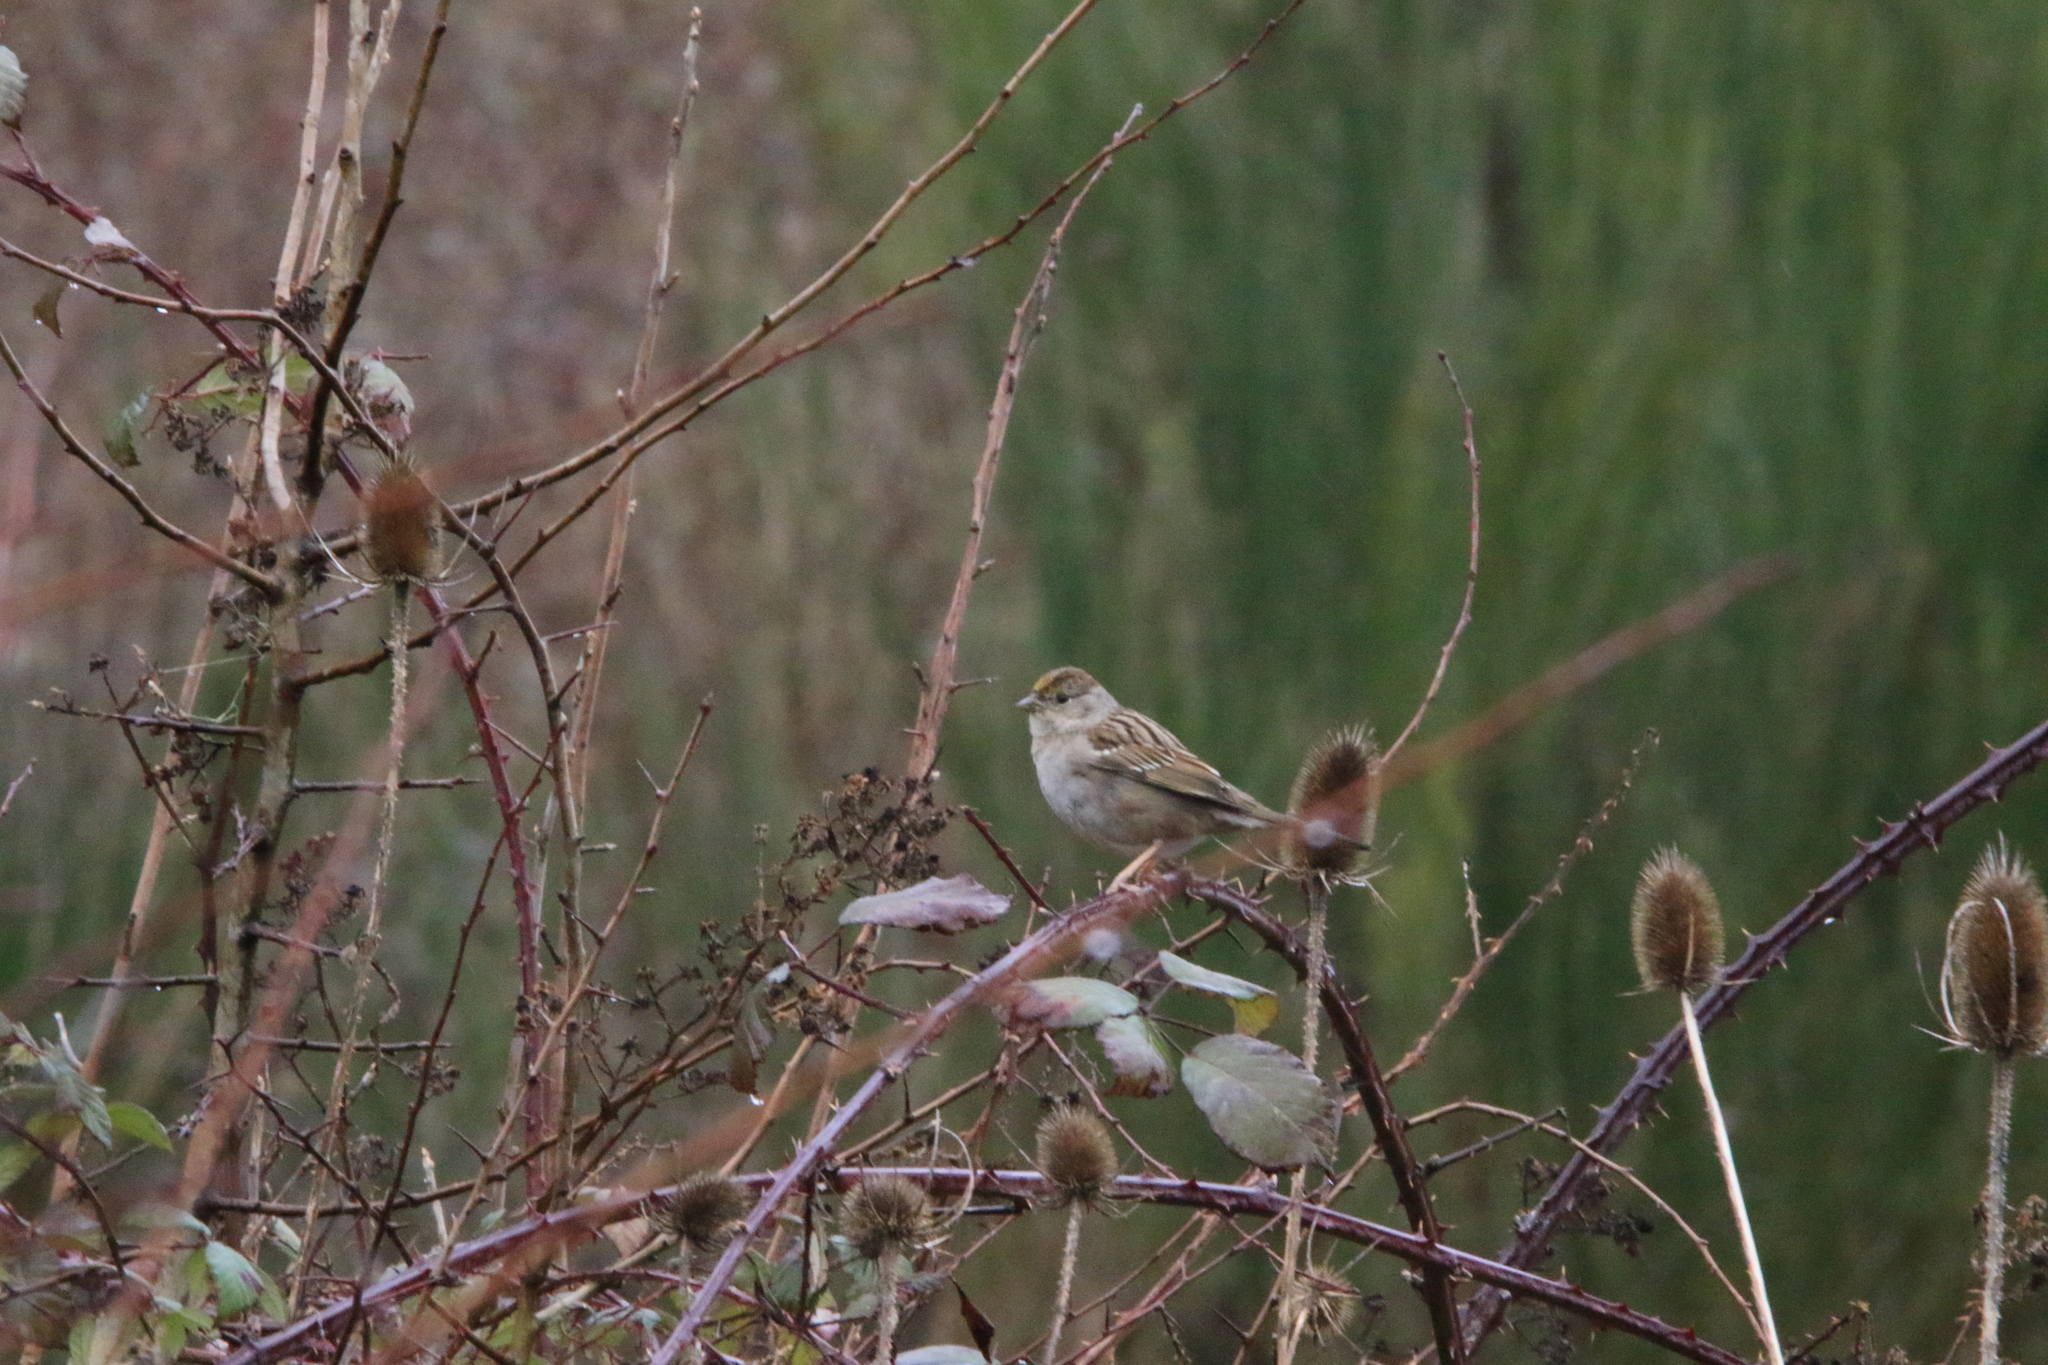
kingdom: Animalia
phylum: Chordata
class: Aves
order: Passeriformes
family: Passerellidae
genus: Zonotrichia
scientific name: Zonotrichia atricapilla
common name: Golden-crowned sparrow
